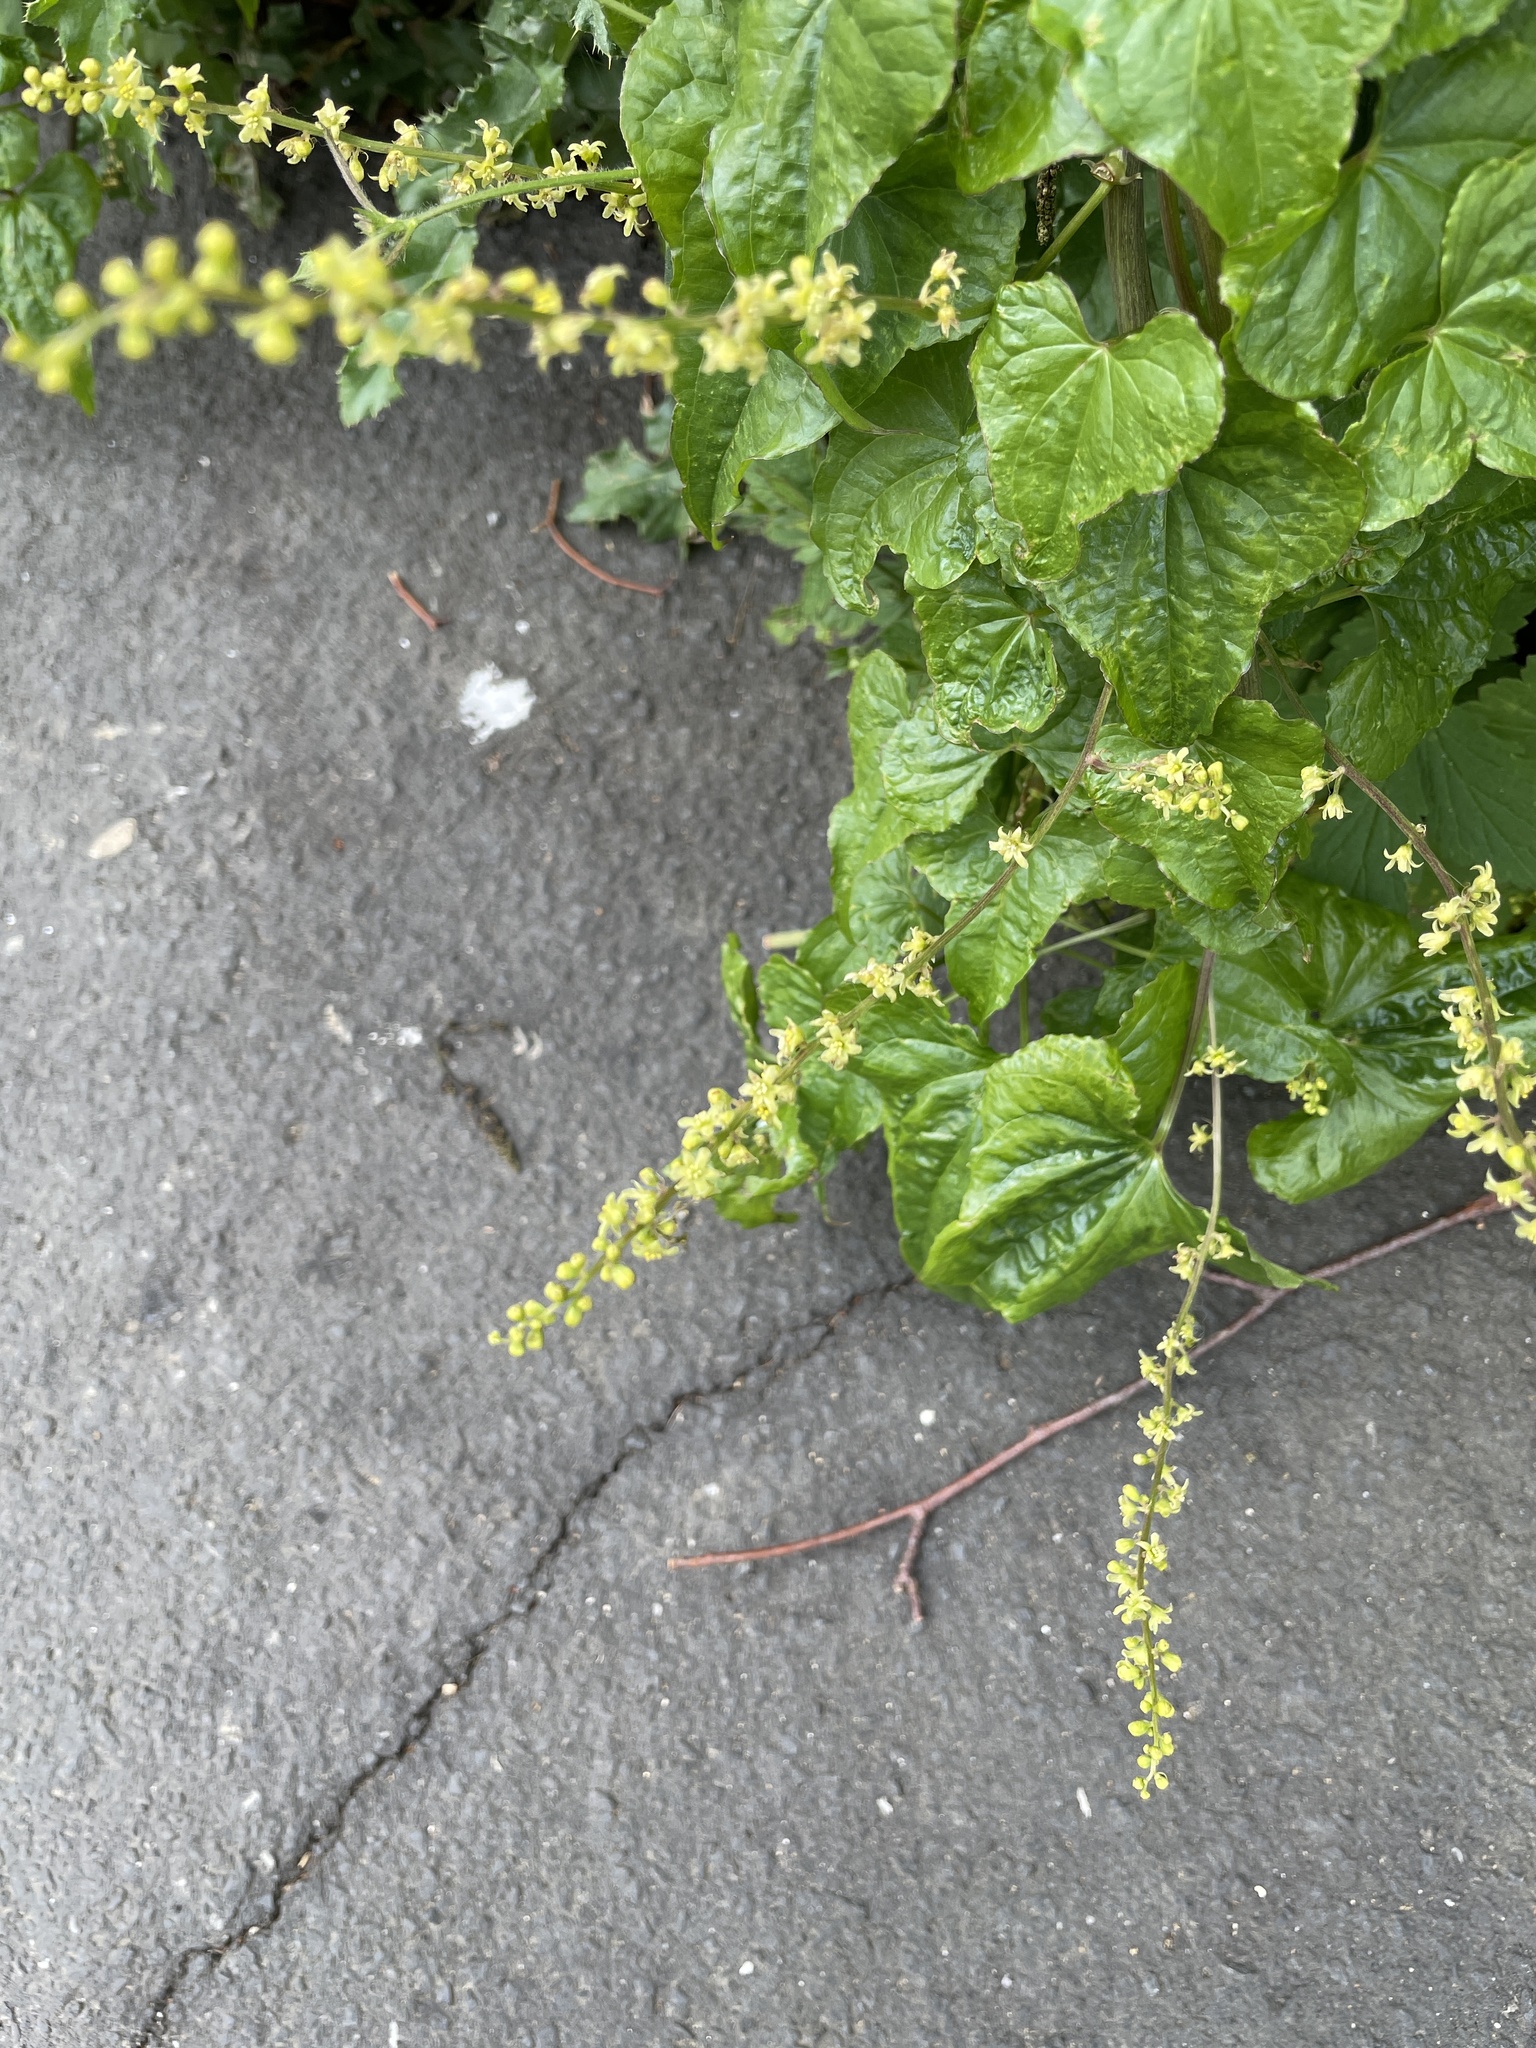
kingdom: Plantae
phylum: Tracheophyta
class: Liliopsida
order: Dioscoreales
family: Dioscoreaceae
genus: Dioscorea
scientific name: Dioscorea communis
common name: Black-bindweed
